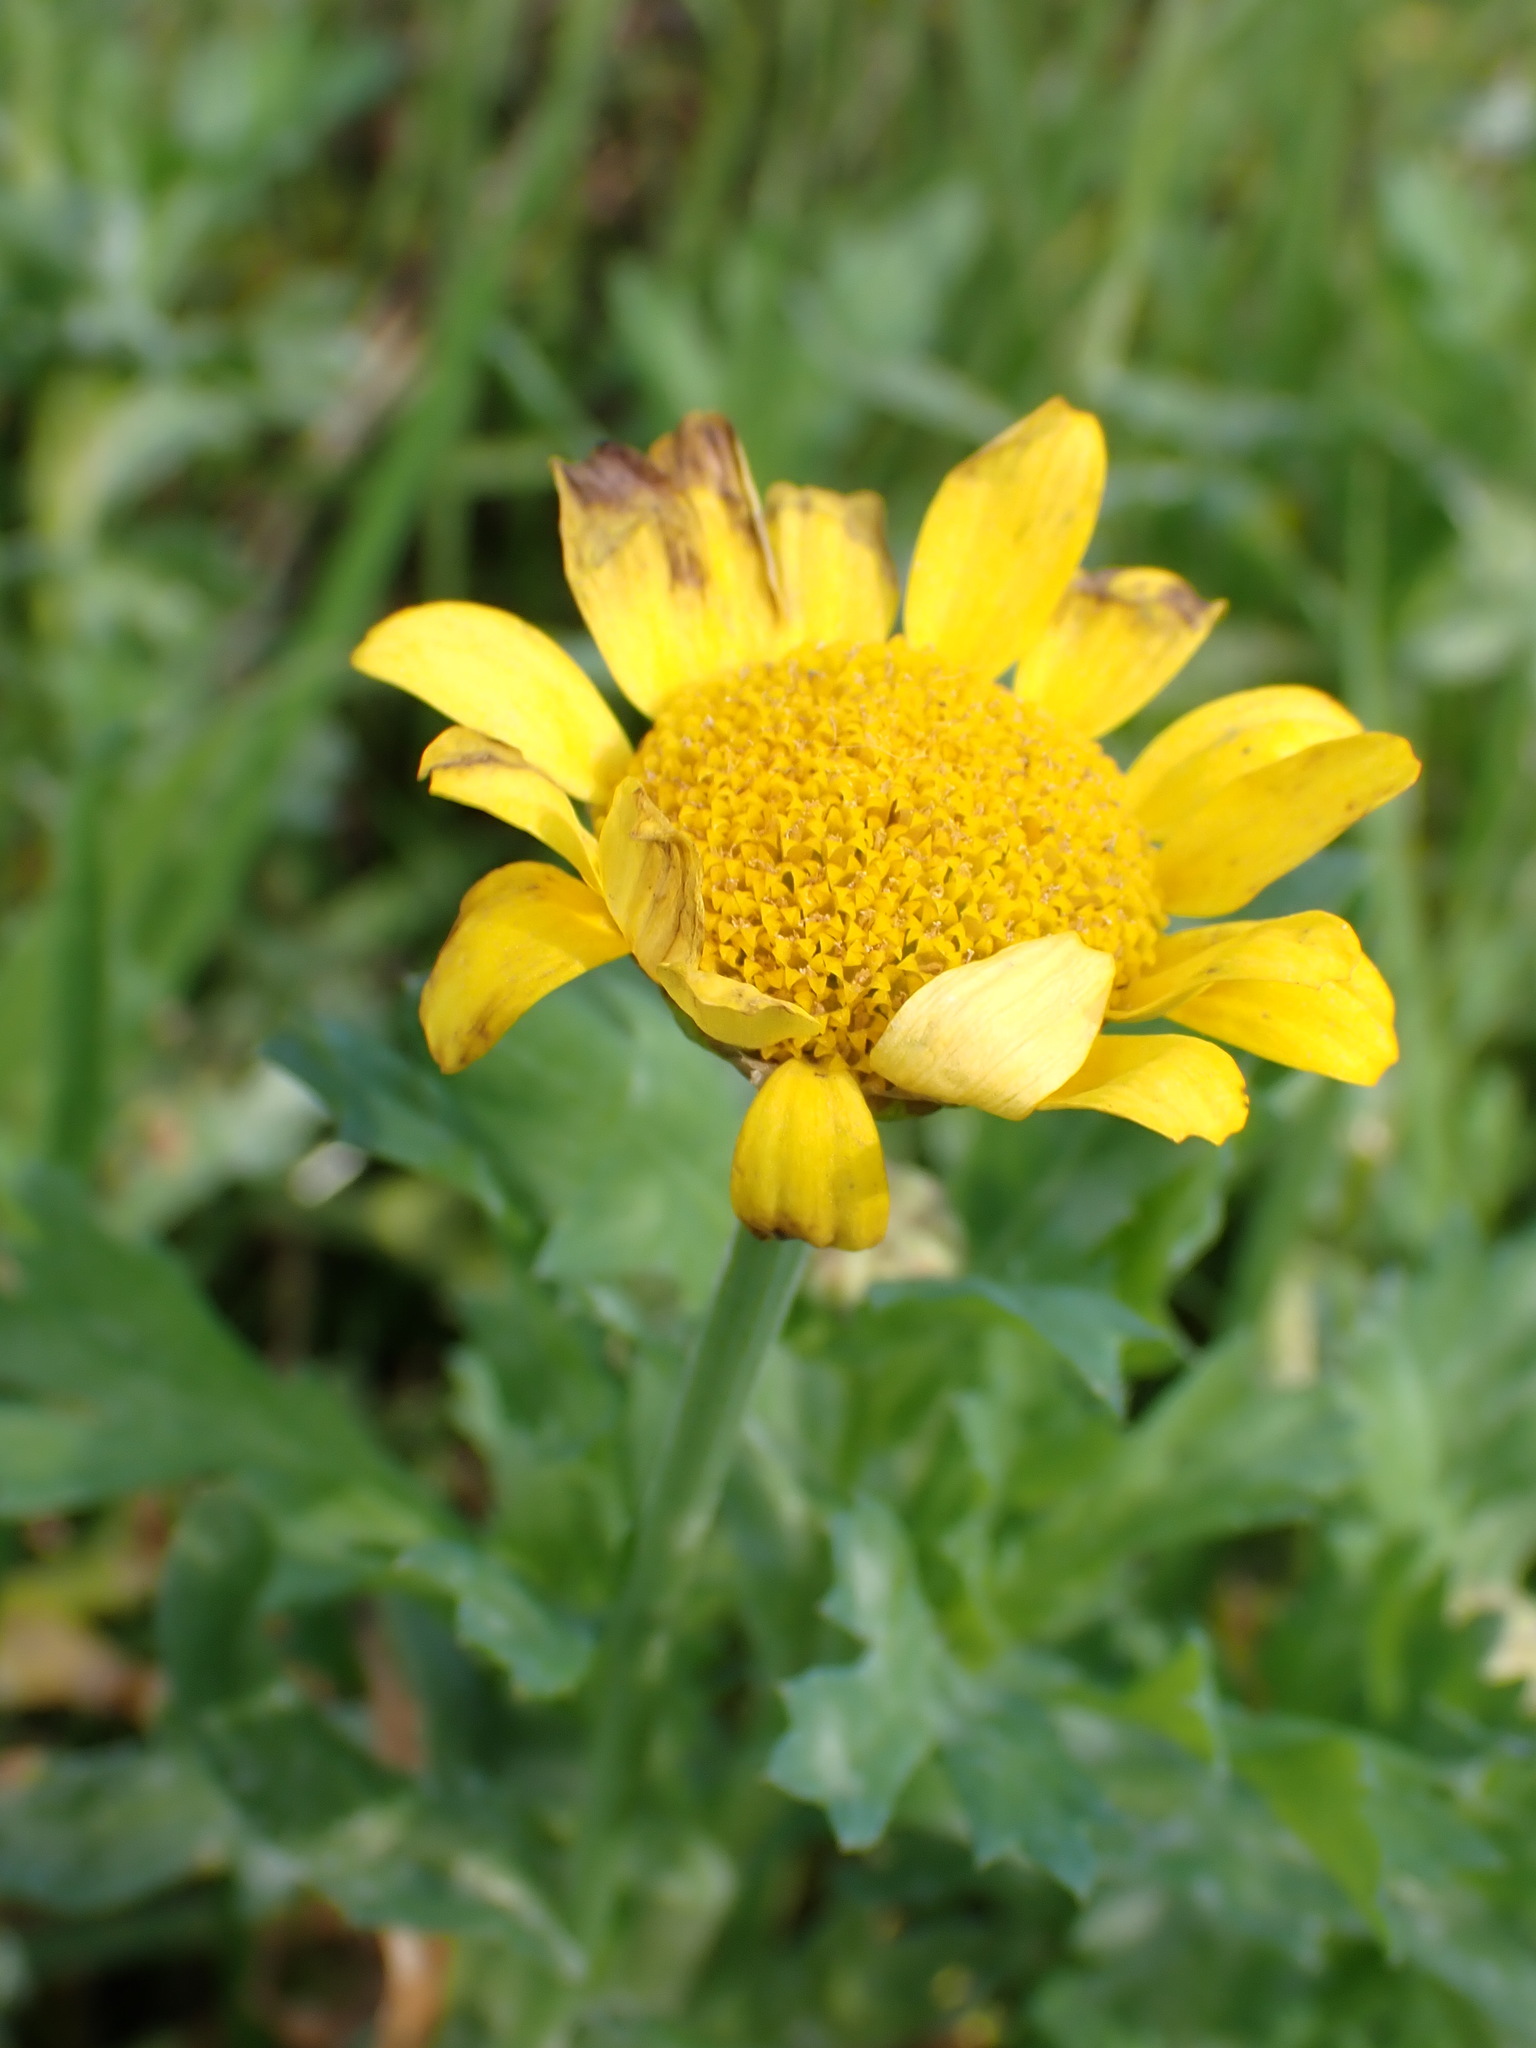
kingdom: Plantae
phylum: Tracheophyta
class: Magnoliopsida
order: Asterales
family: Asteraceae
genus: Glebionis
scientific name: Glebionis segetum
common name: Corndaisy
